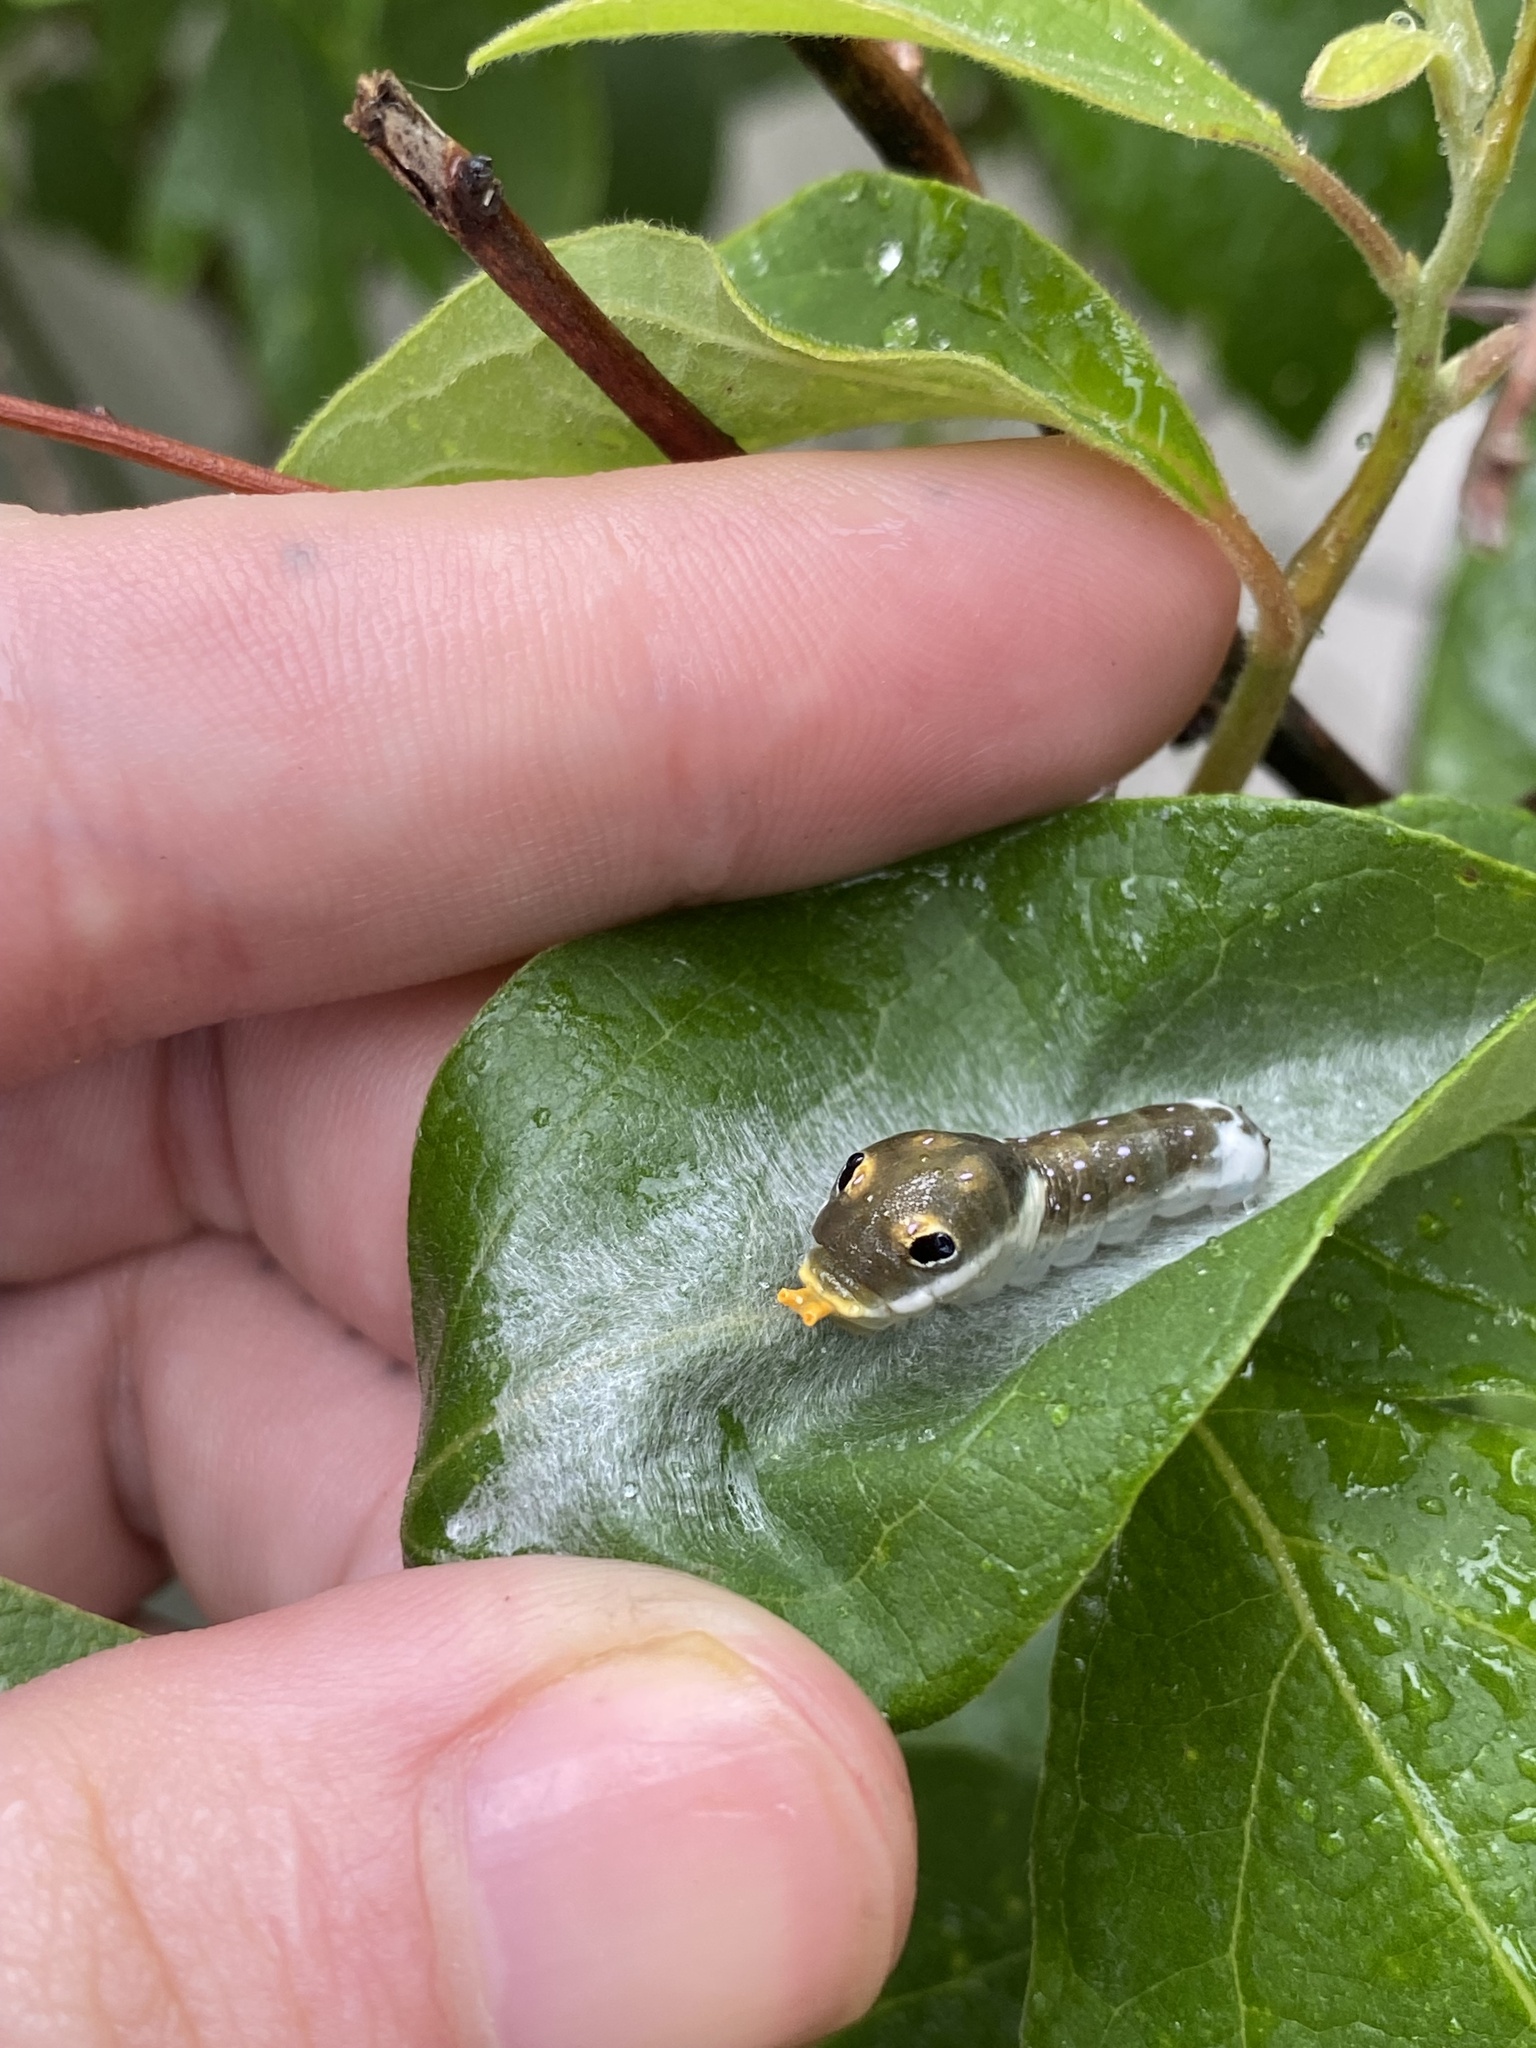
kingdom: Animalia
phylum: Arthropoda
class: Insecta
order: Lepidoptera
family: Papilionidae
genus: Papilio
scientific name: Papilio troilus
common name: Spicebush swallowtail
